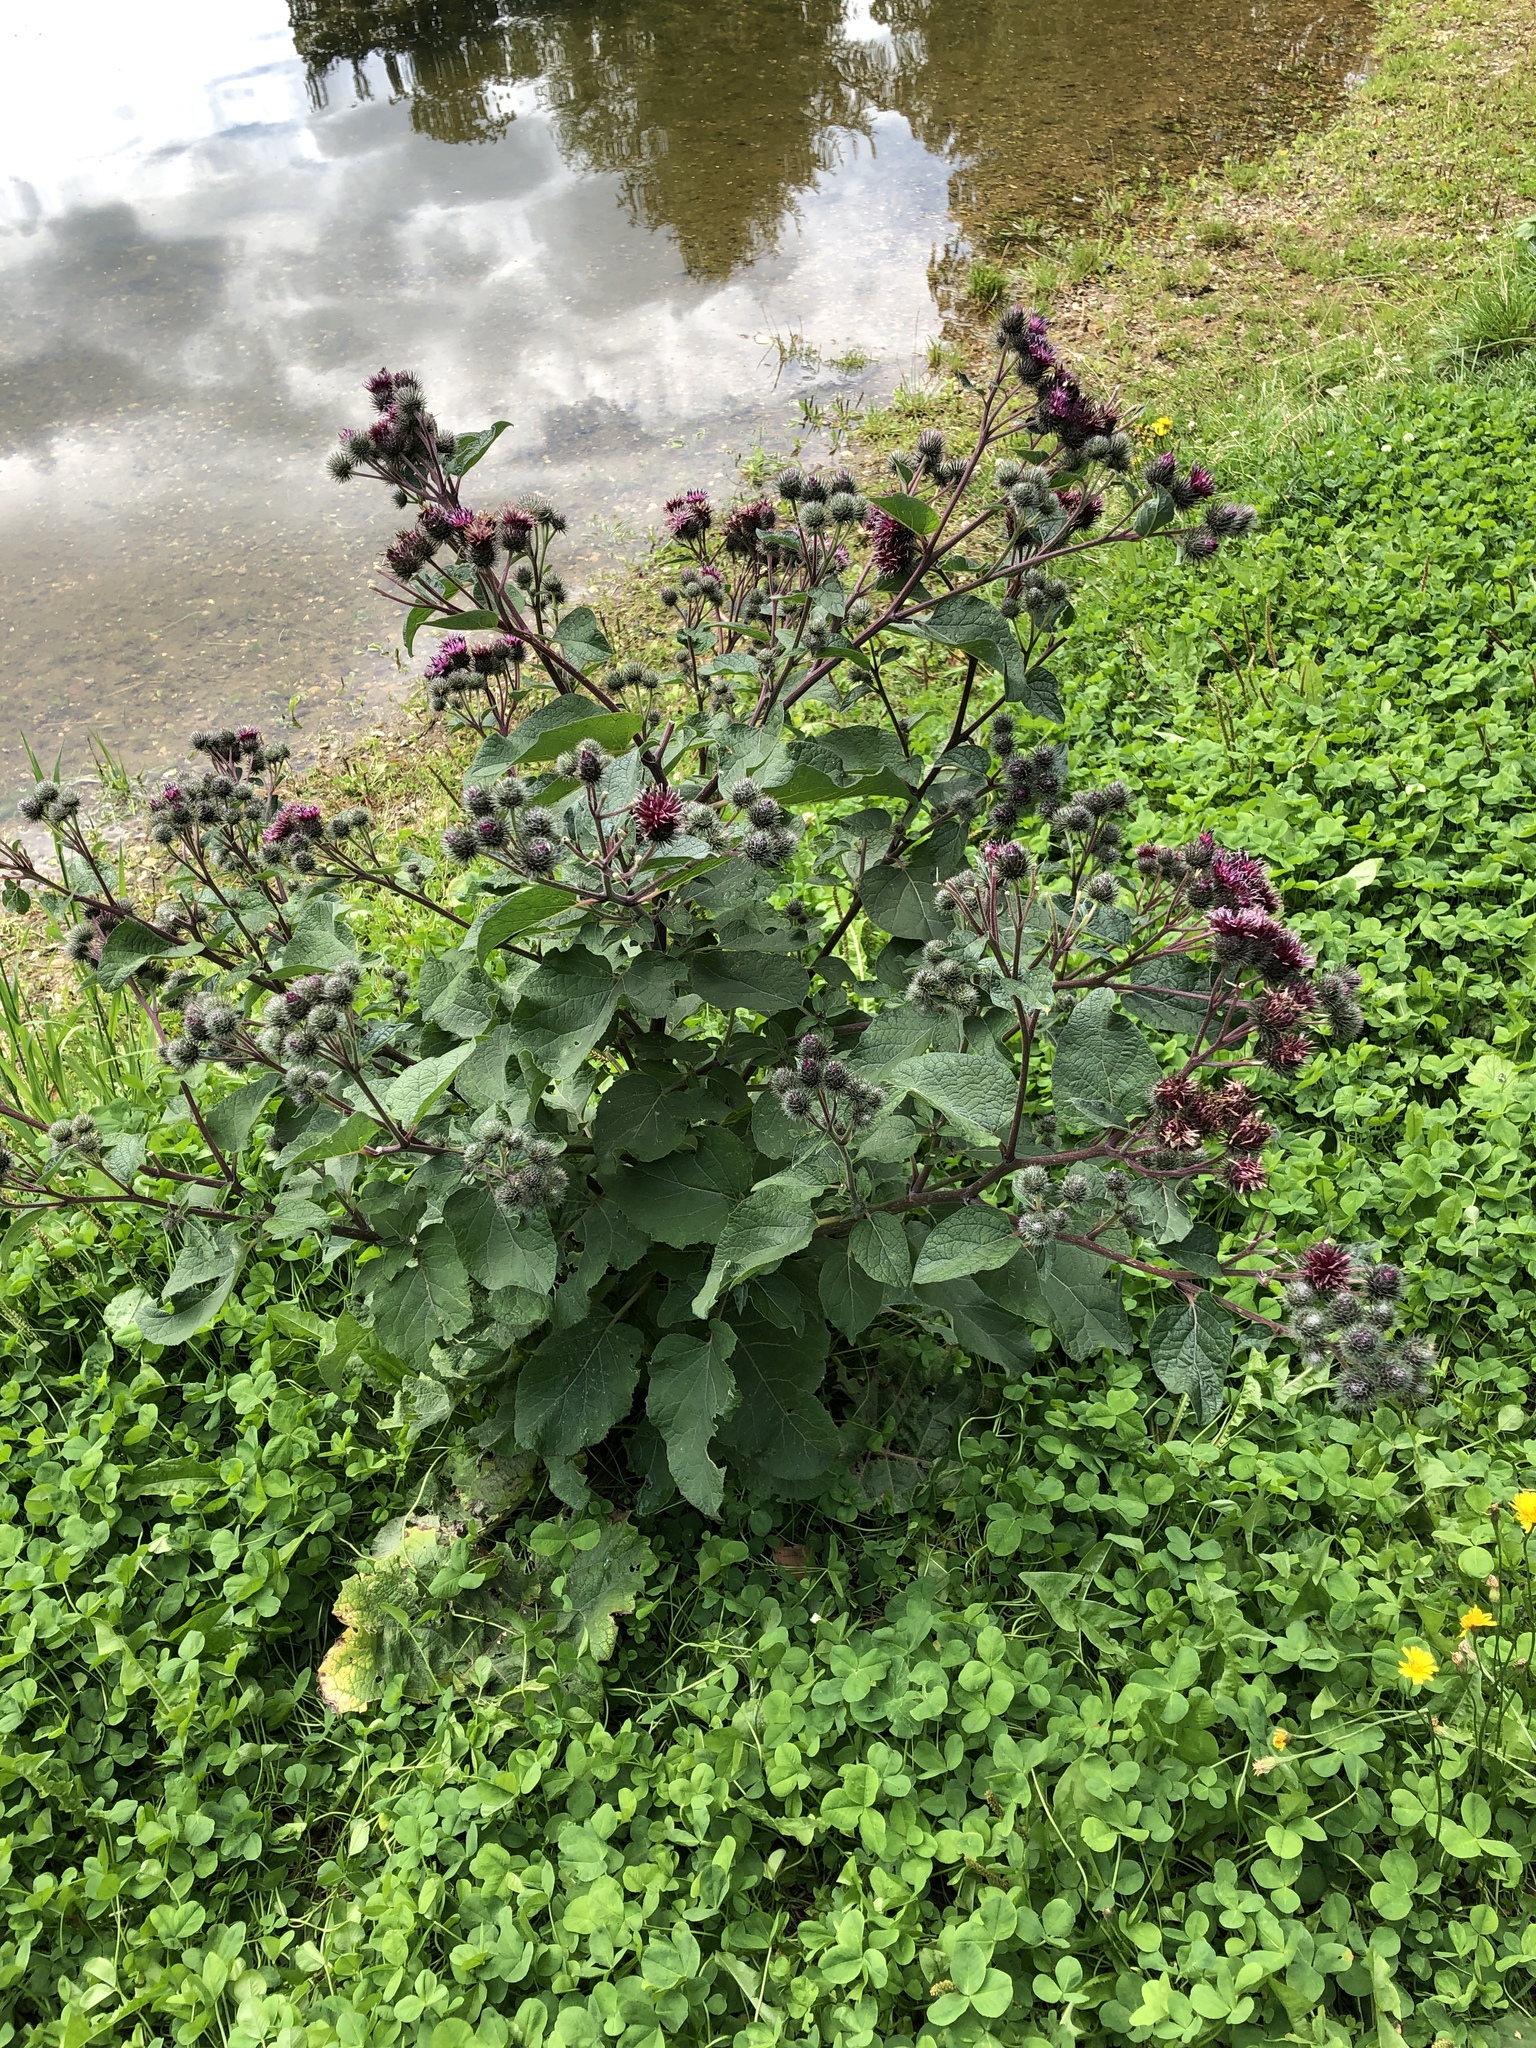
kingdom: Plantae
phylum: Tracheophyta
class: Magnoliopsida
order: Asterales
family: Asteraceae
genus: Arctium
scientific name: Arctium tomentosum
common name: Woolly burdock
